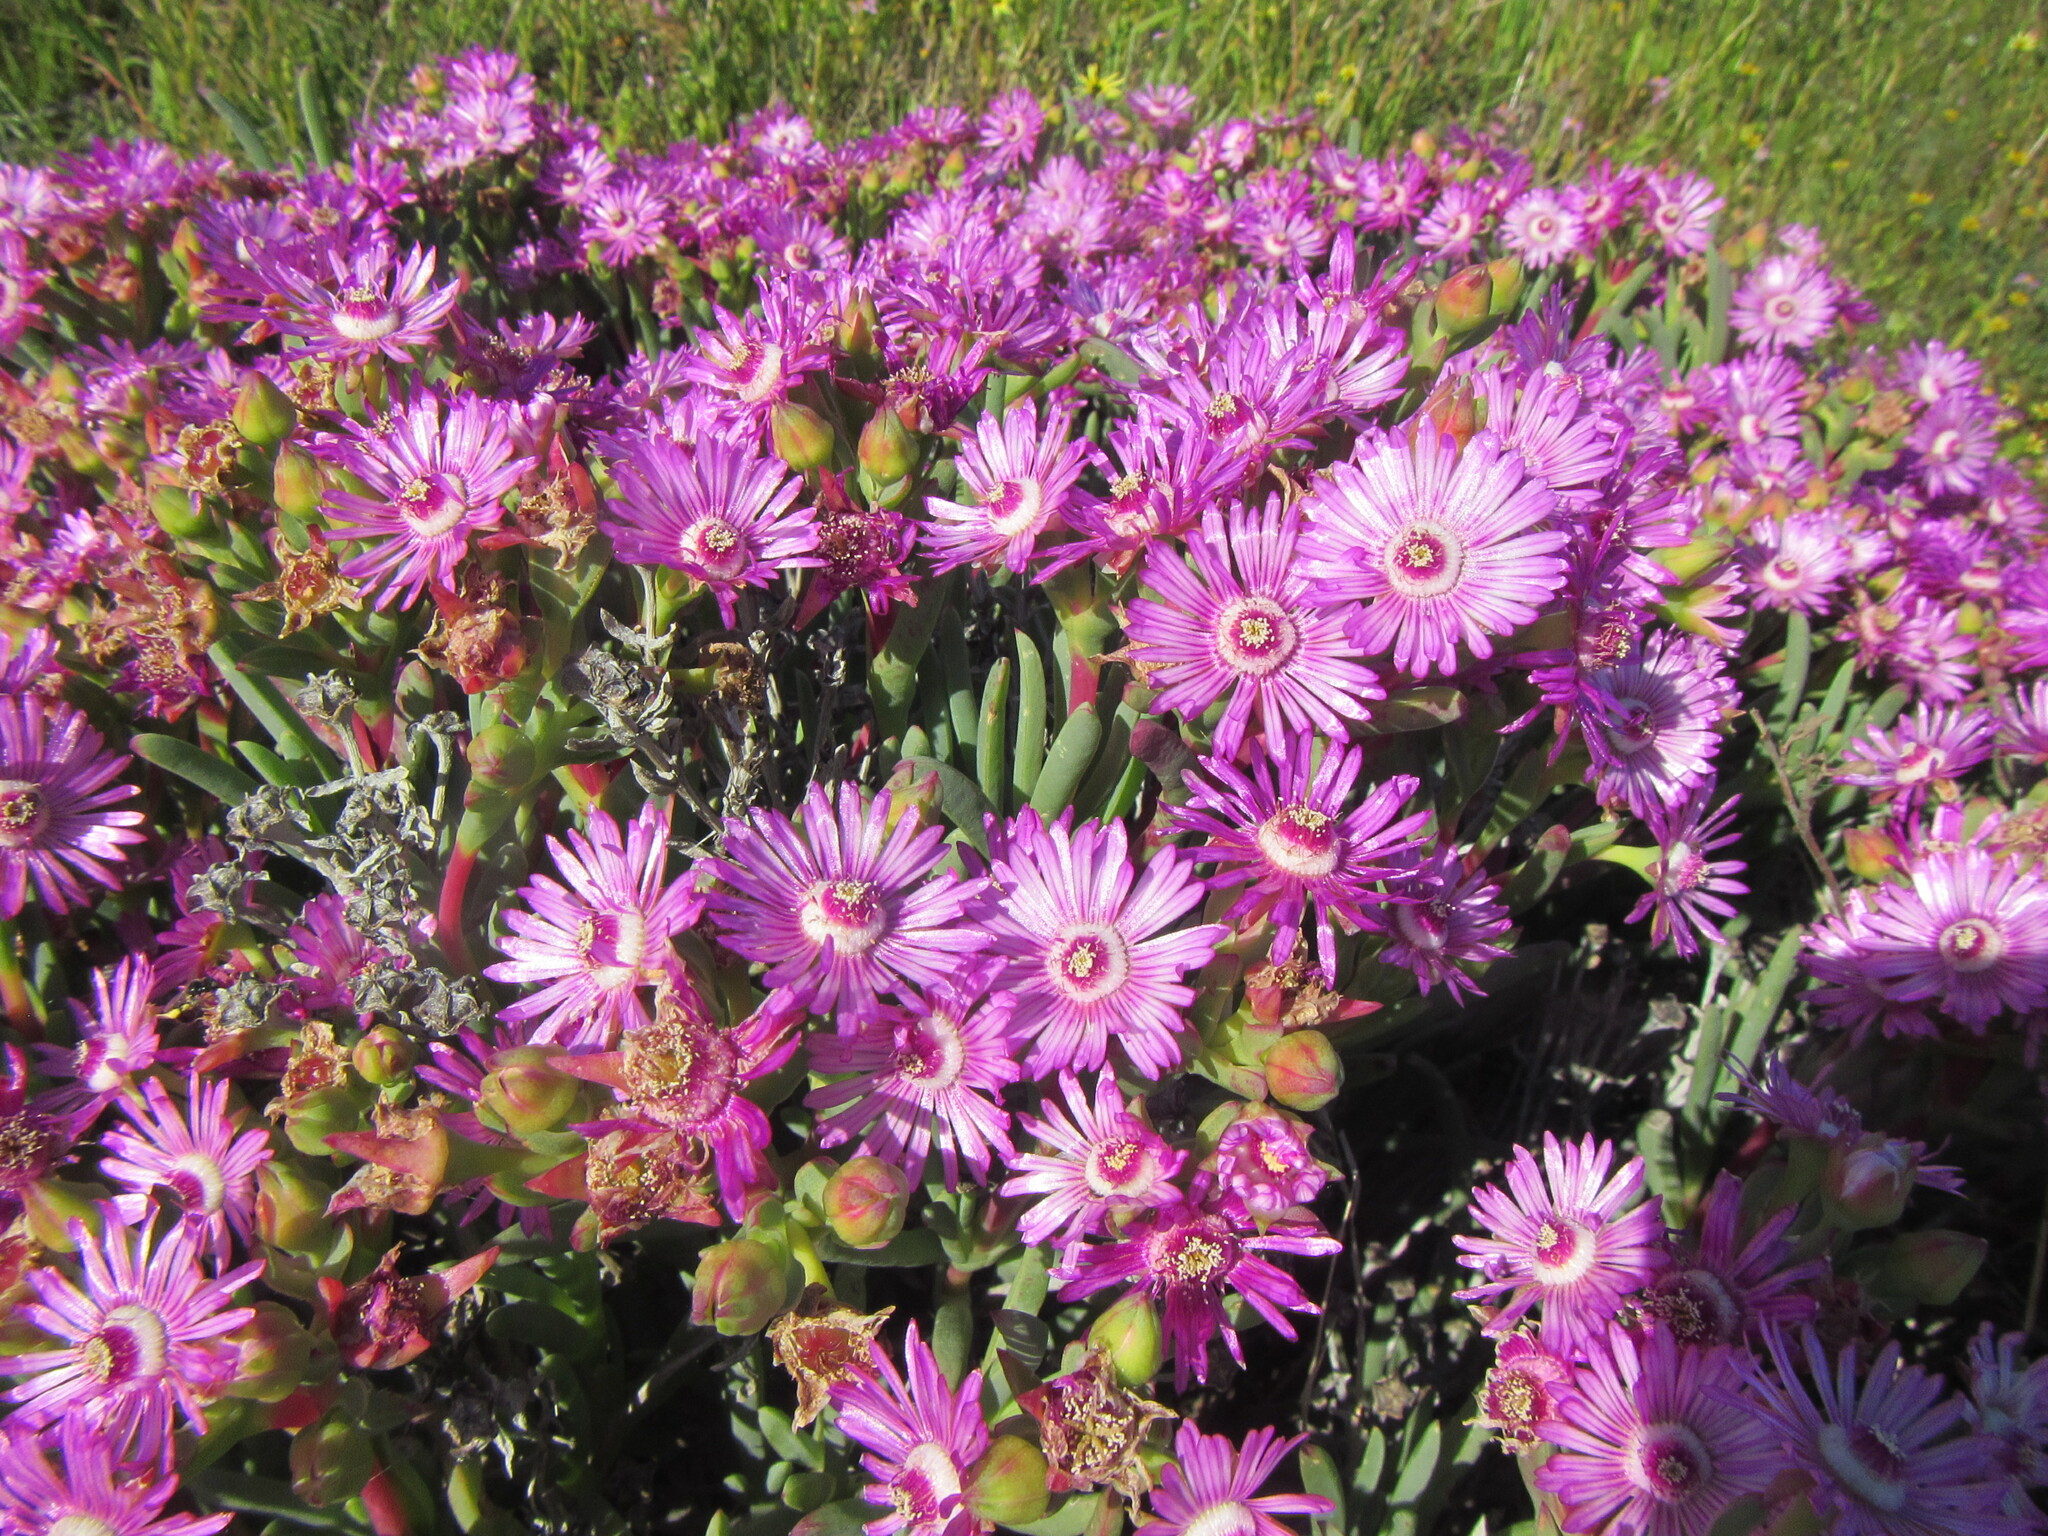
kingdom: Plantae
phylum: Tracheophyta
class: Magnoliopsida
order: Caryophyllales
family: Aizoaceae
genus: Ruschia
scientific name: Ruschia caroli
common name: Shrubby dewplant
